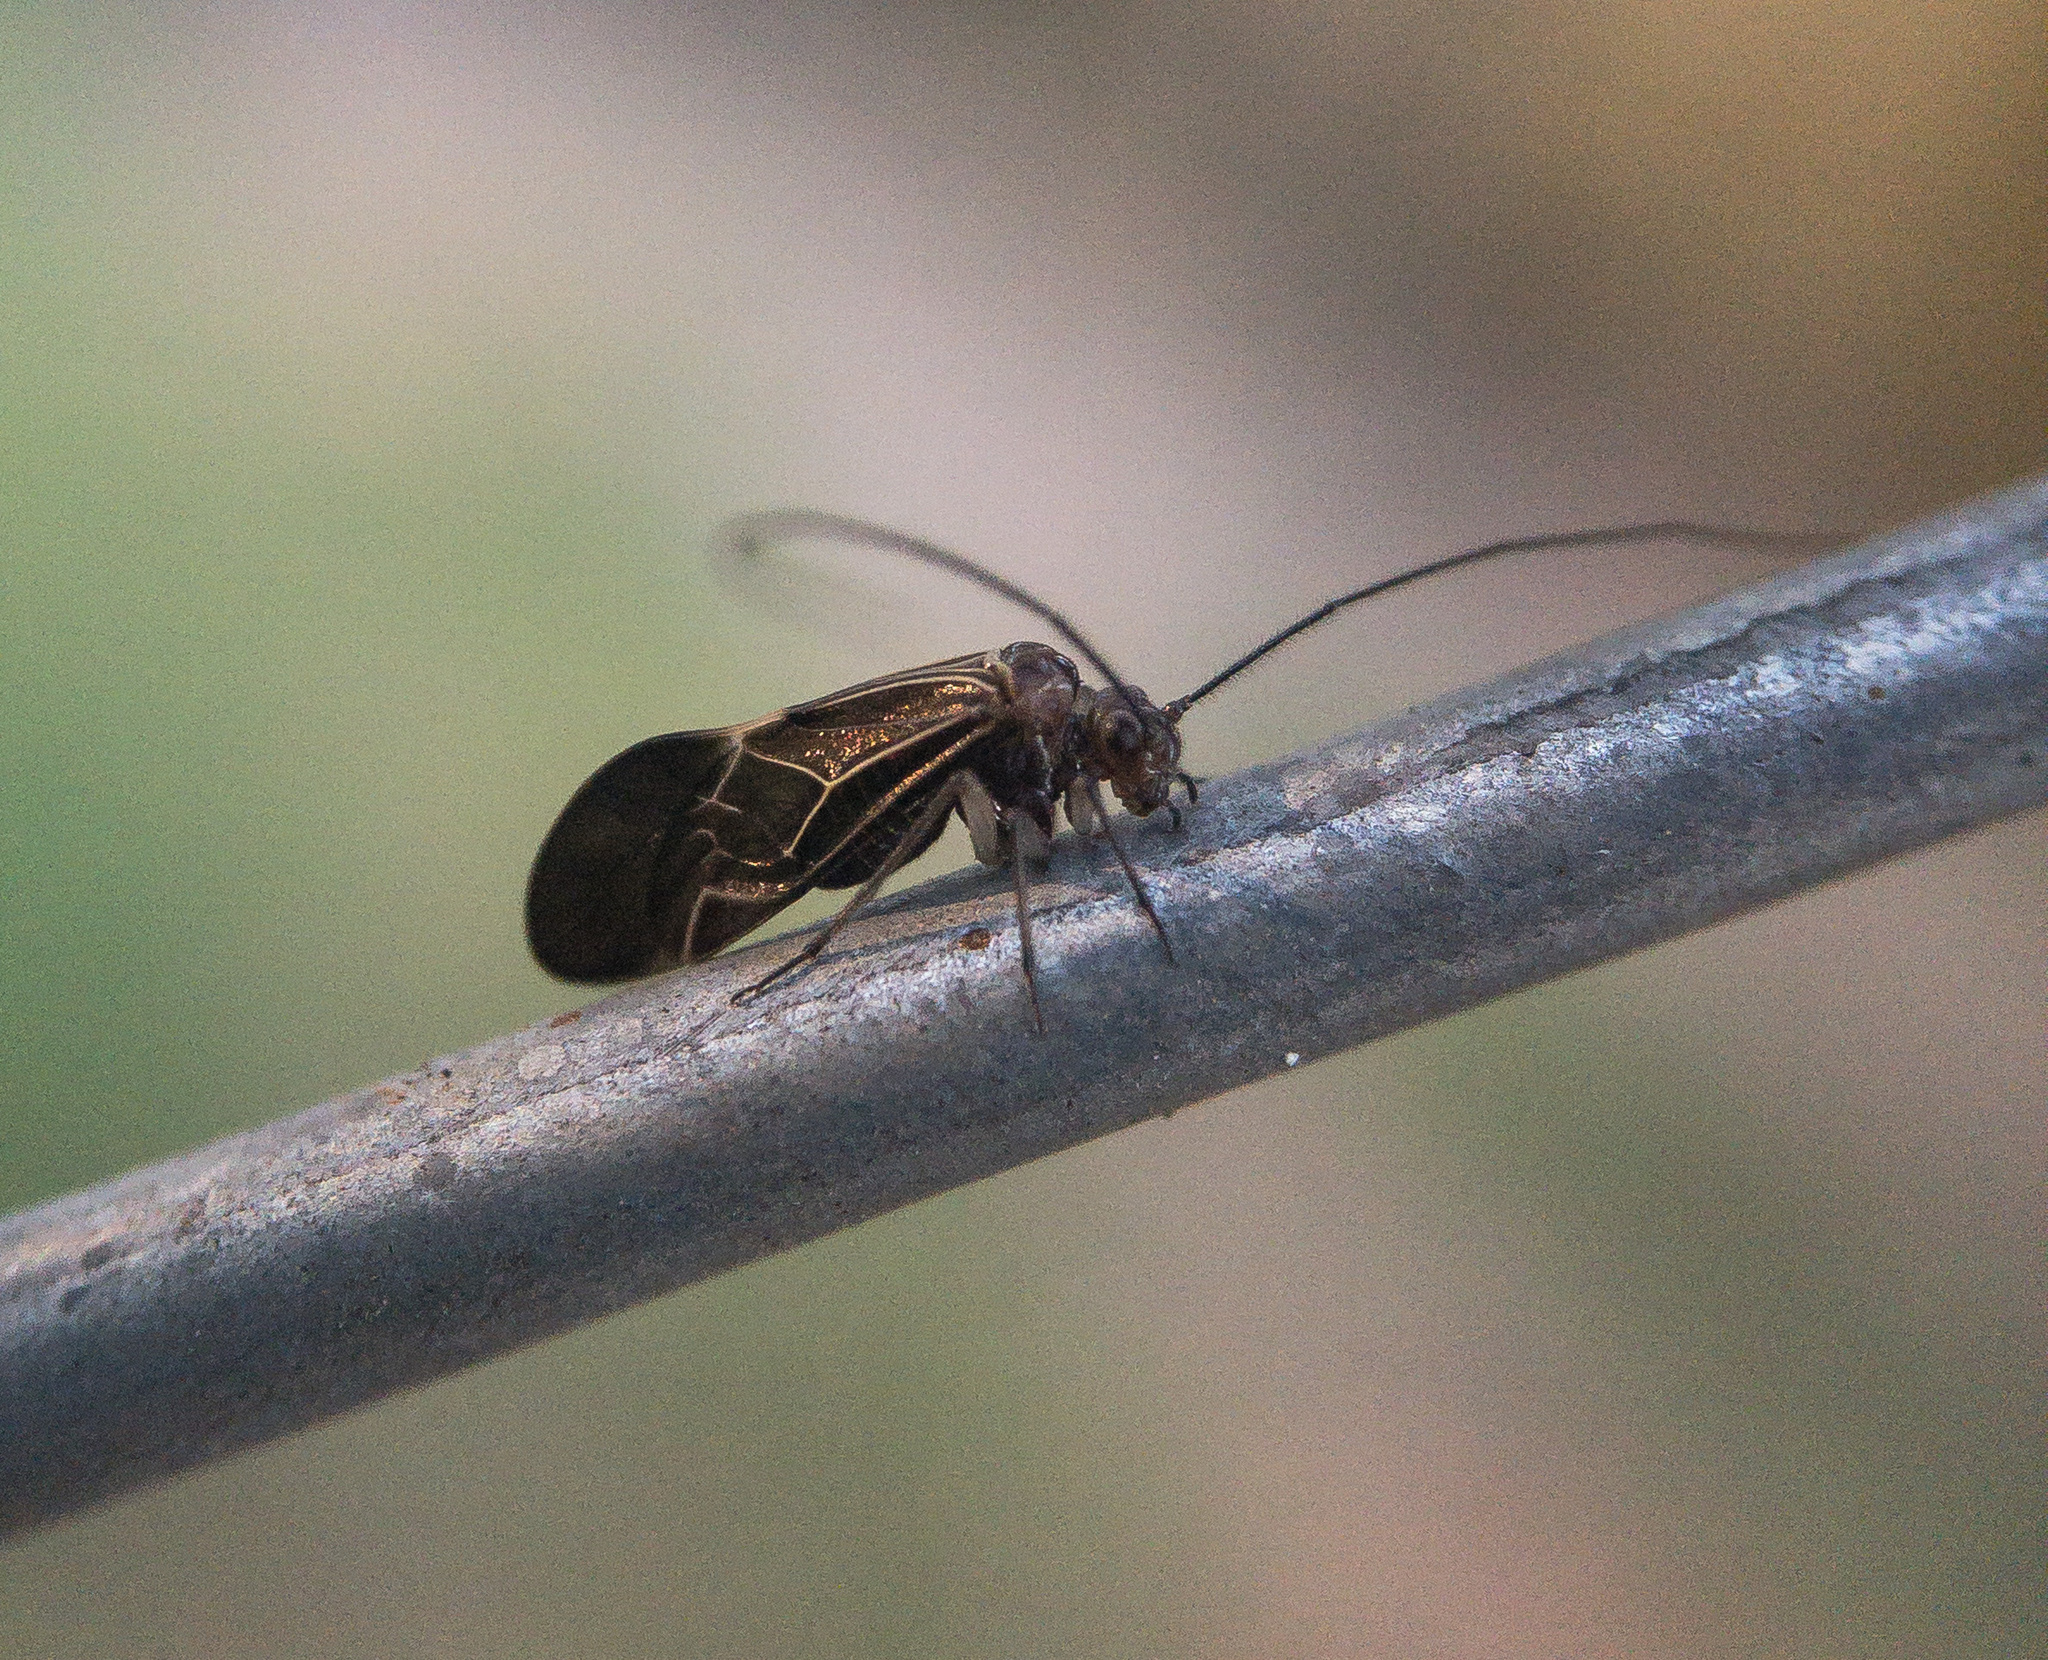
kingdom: Animalia
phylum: Arthropoda
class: Insecta
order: Psocodea
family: Psocidae
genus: Cerastipsocus
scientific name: Cerastipsocus venosus
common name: Tree cattle
